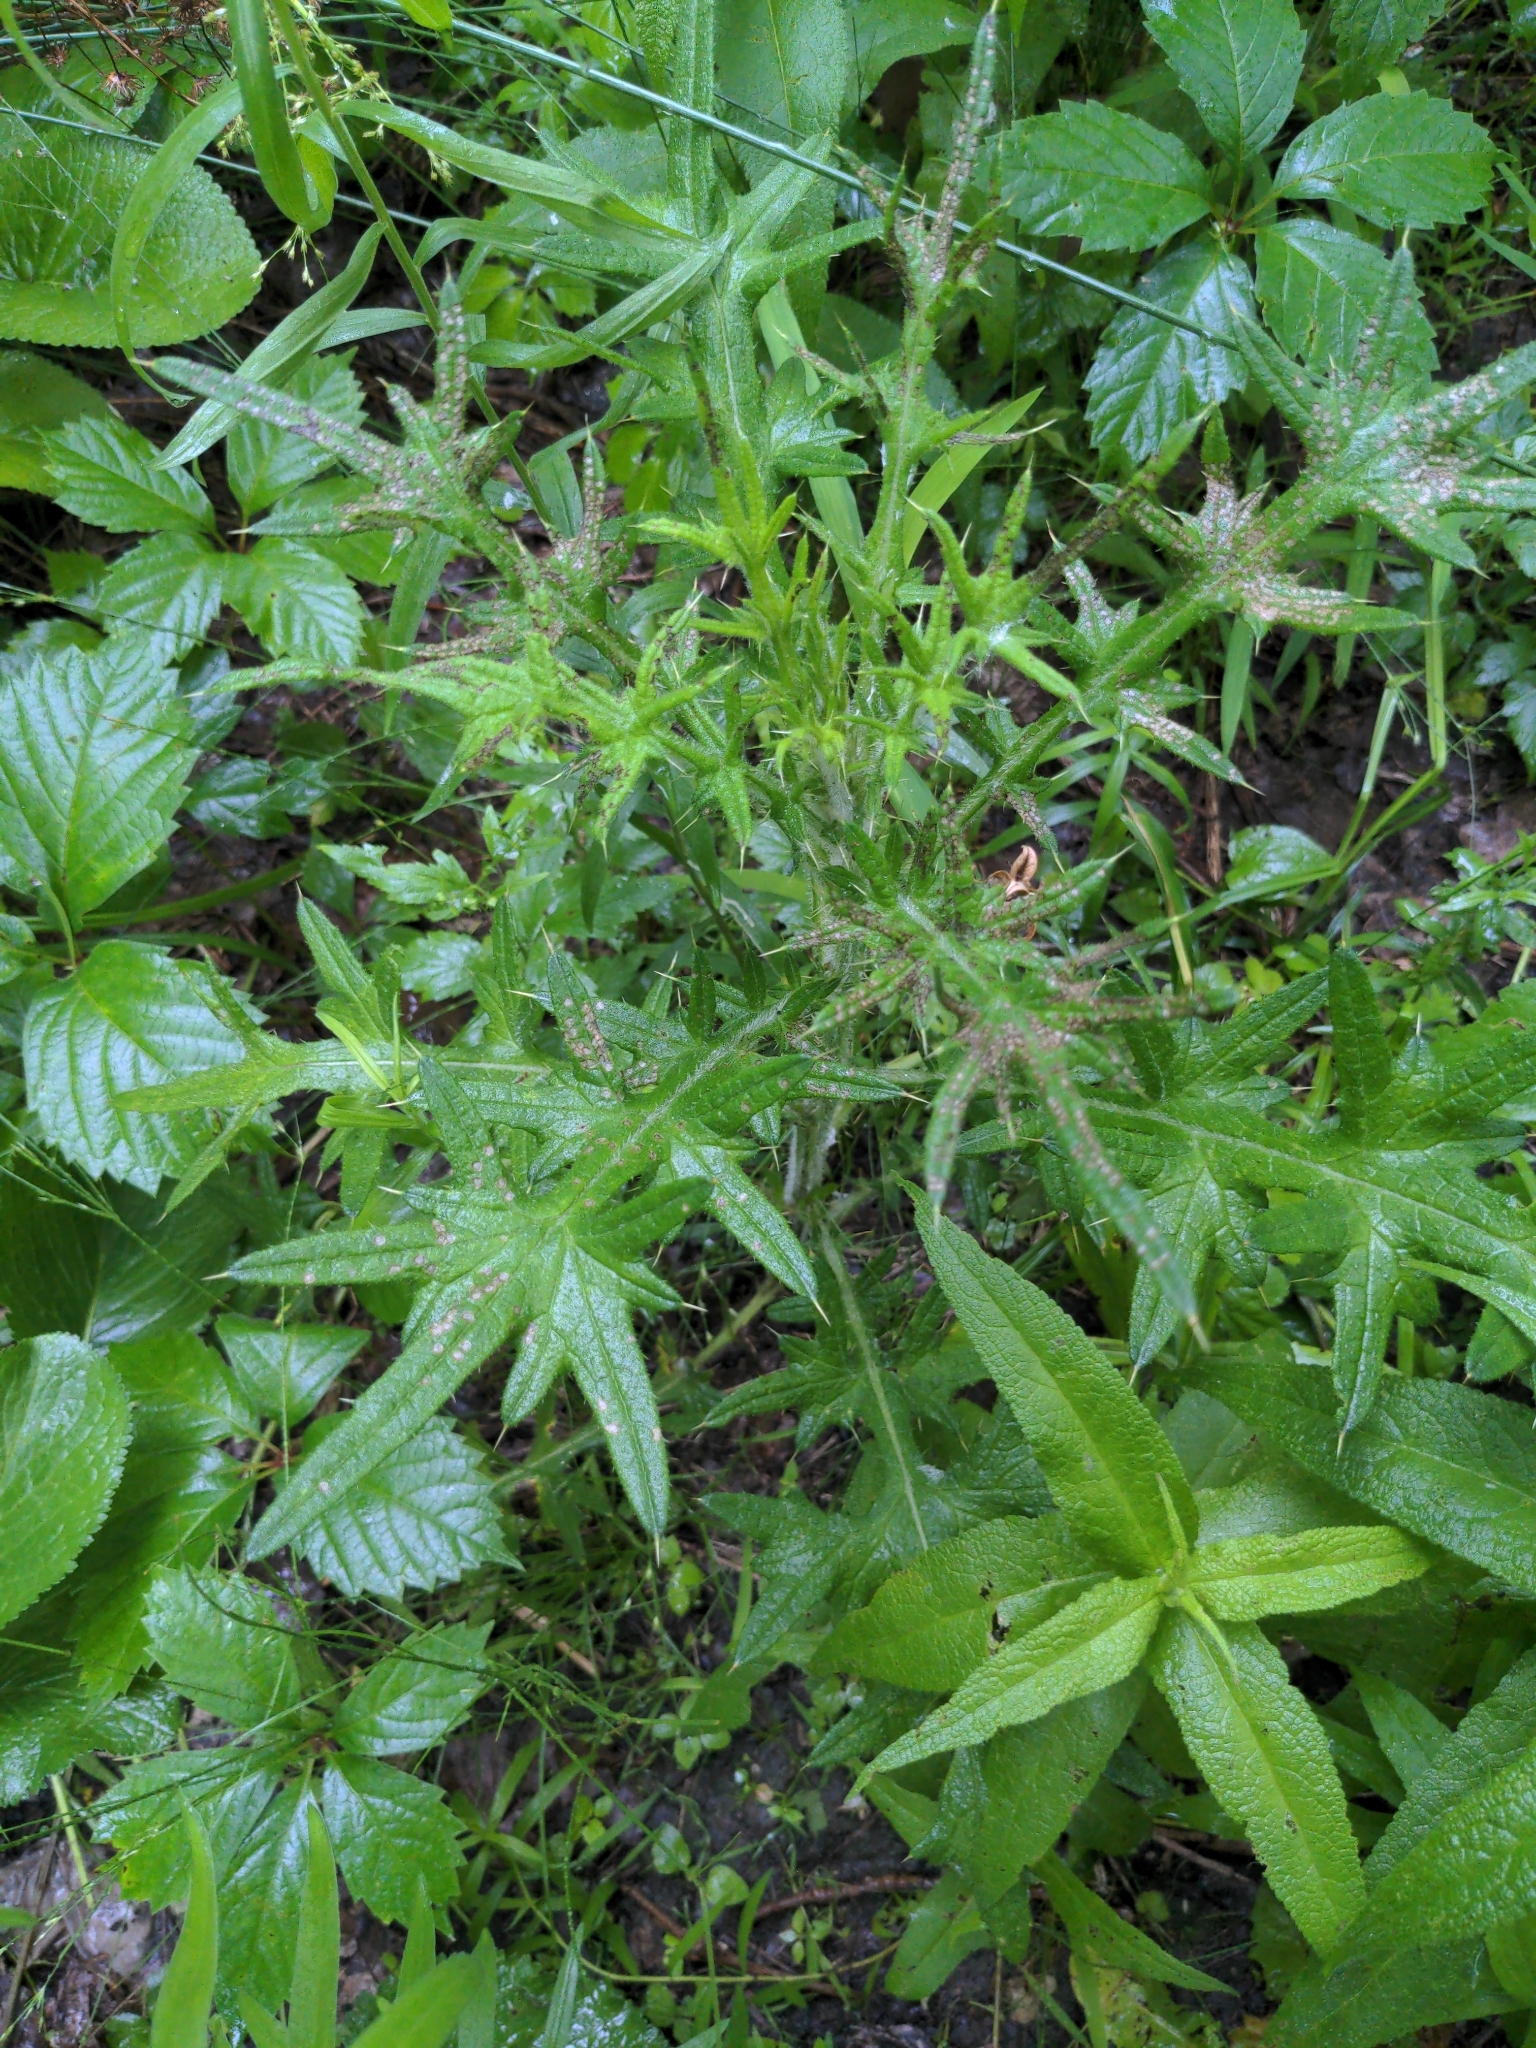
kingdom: Plantae
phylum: Tracheophyta
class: Magnoliopsida
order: Asterales
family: Asteraceae
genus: Cirsium
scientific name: Cirsium vulgare
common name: Bull thistle
